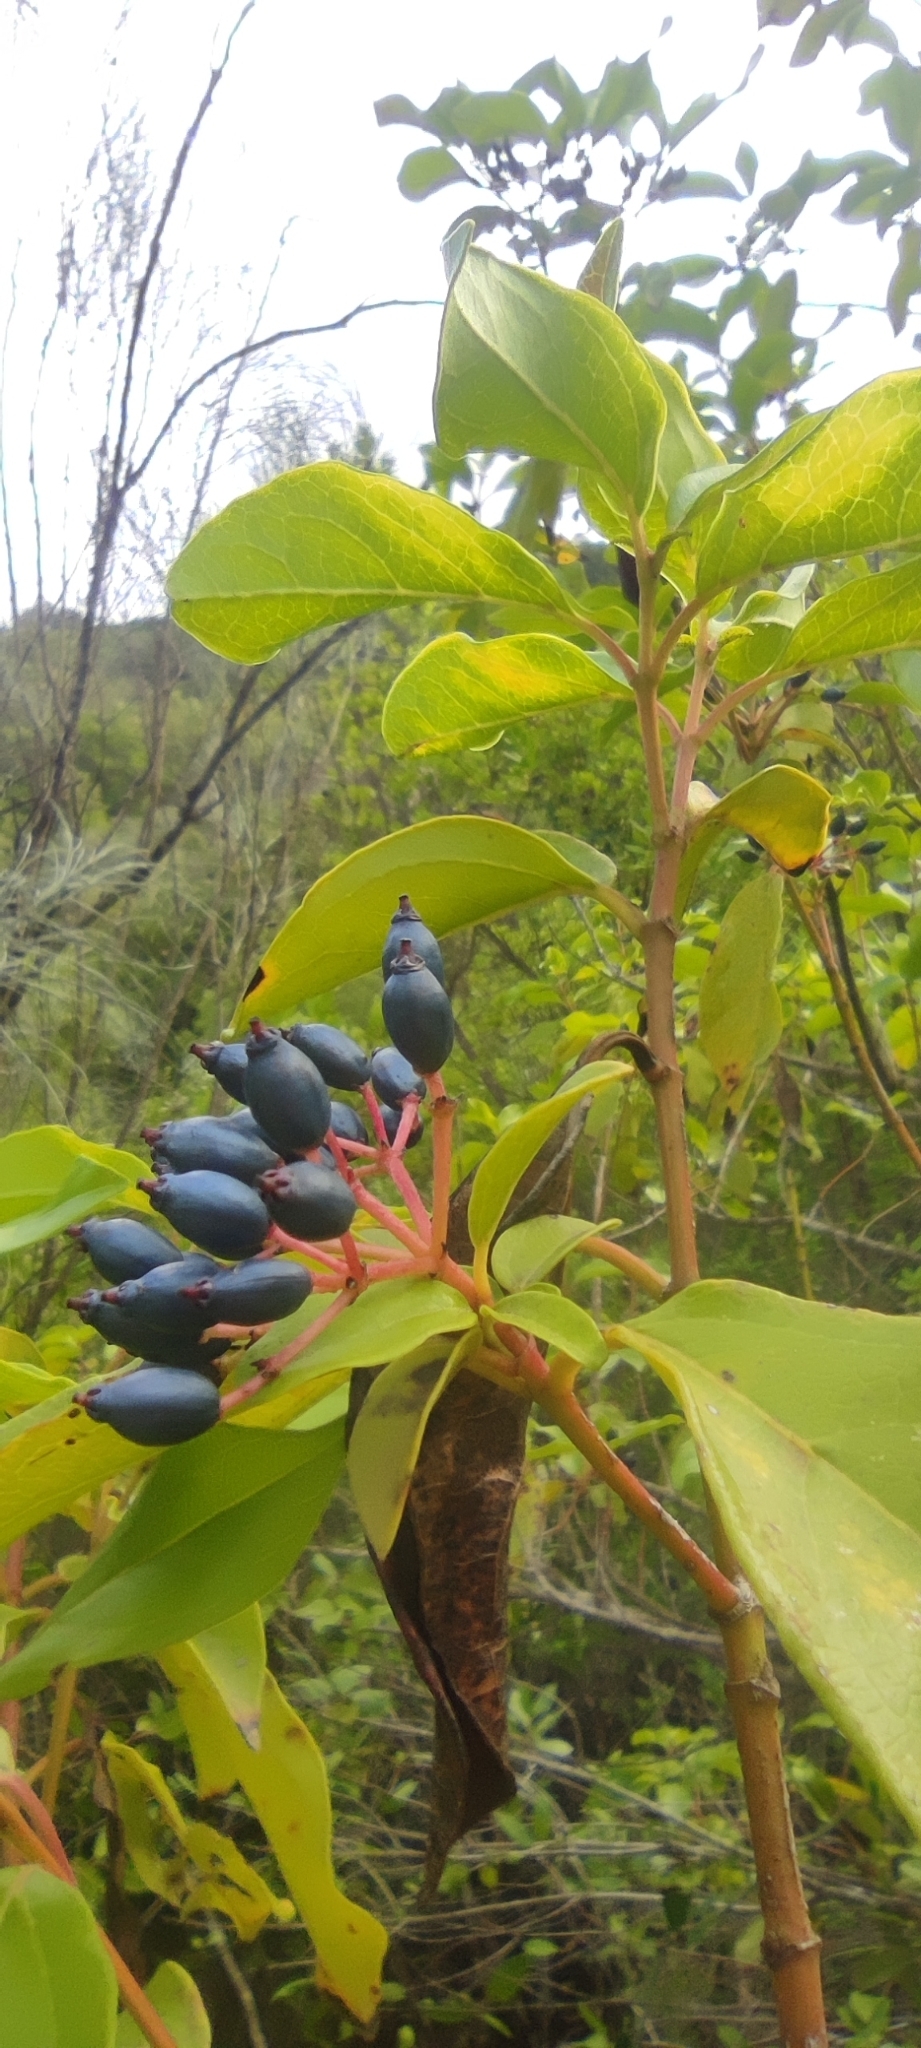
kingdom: Plantae
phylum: Tracheophyta
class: Magnoliopsida
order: Dipsacales
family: Viburnaceae
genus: Viburnum
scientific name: Viburnum tinus
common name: Laurustinus
